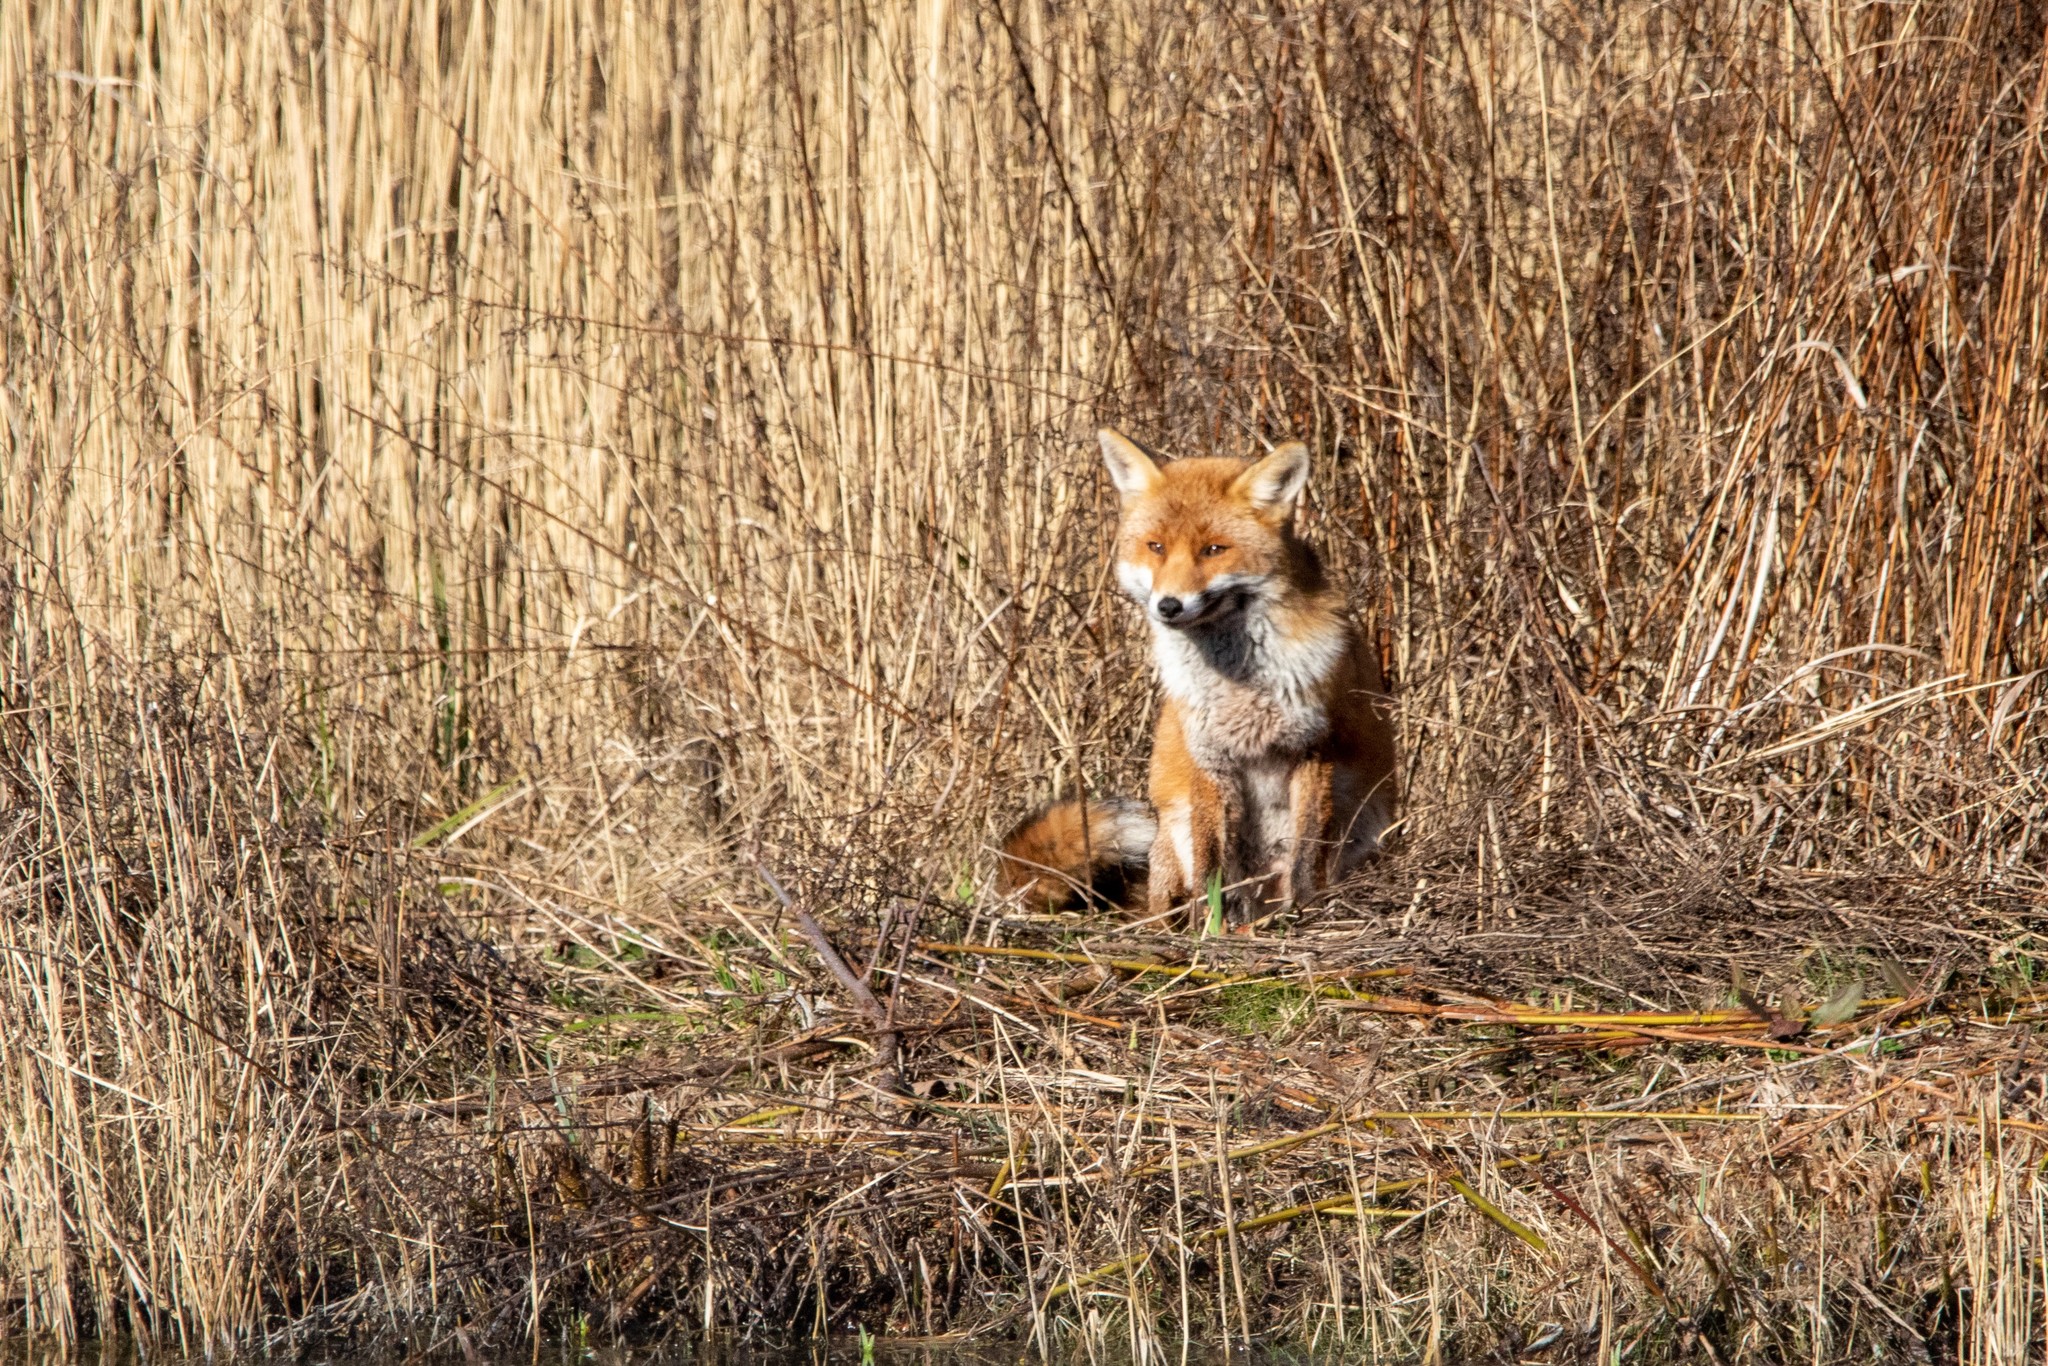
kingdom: Animalia
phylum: Chordata
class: Mammalia
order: Carnivora
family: Canidae
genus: Vulpes
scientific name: Vulpes vulpes
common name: Red fox
